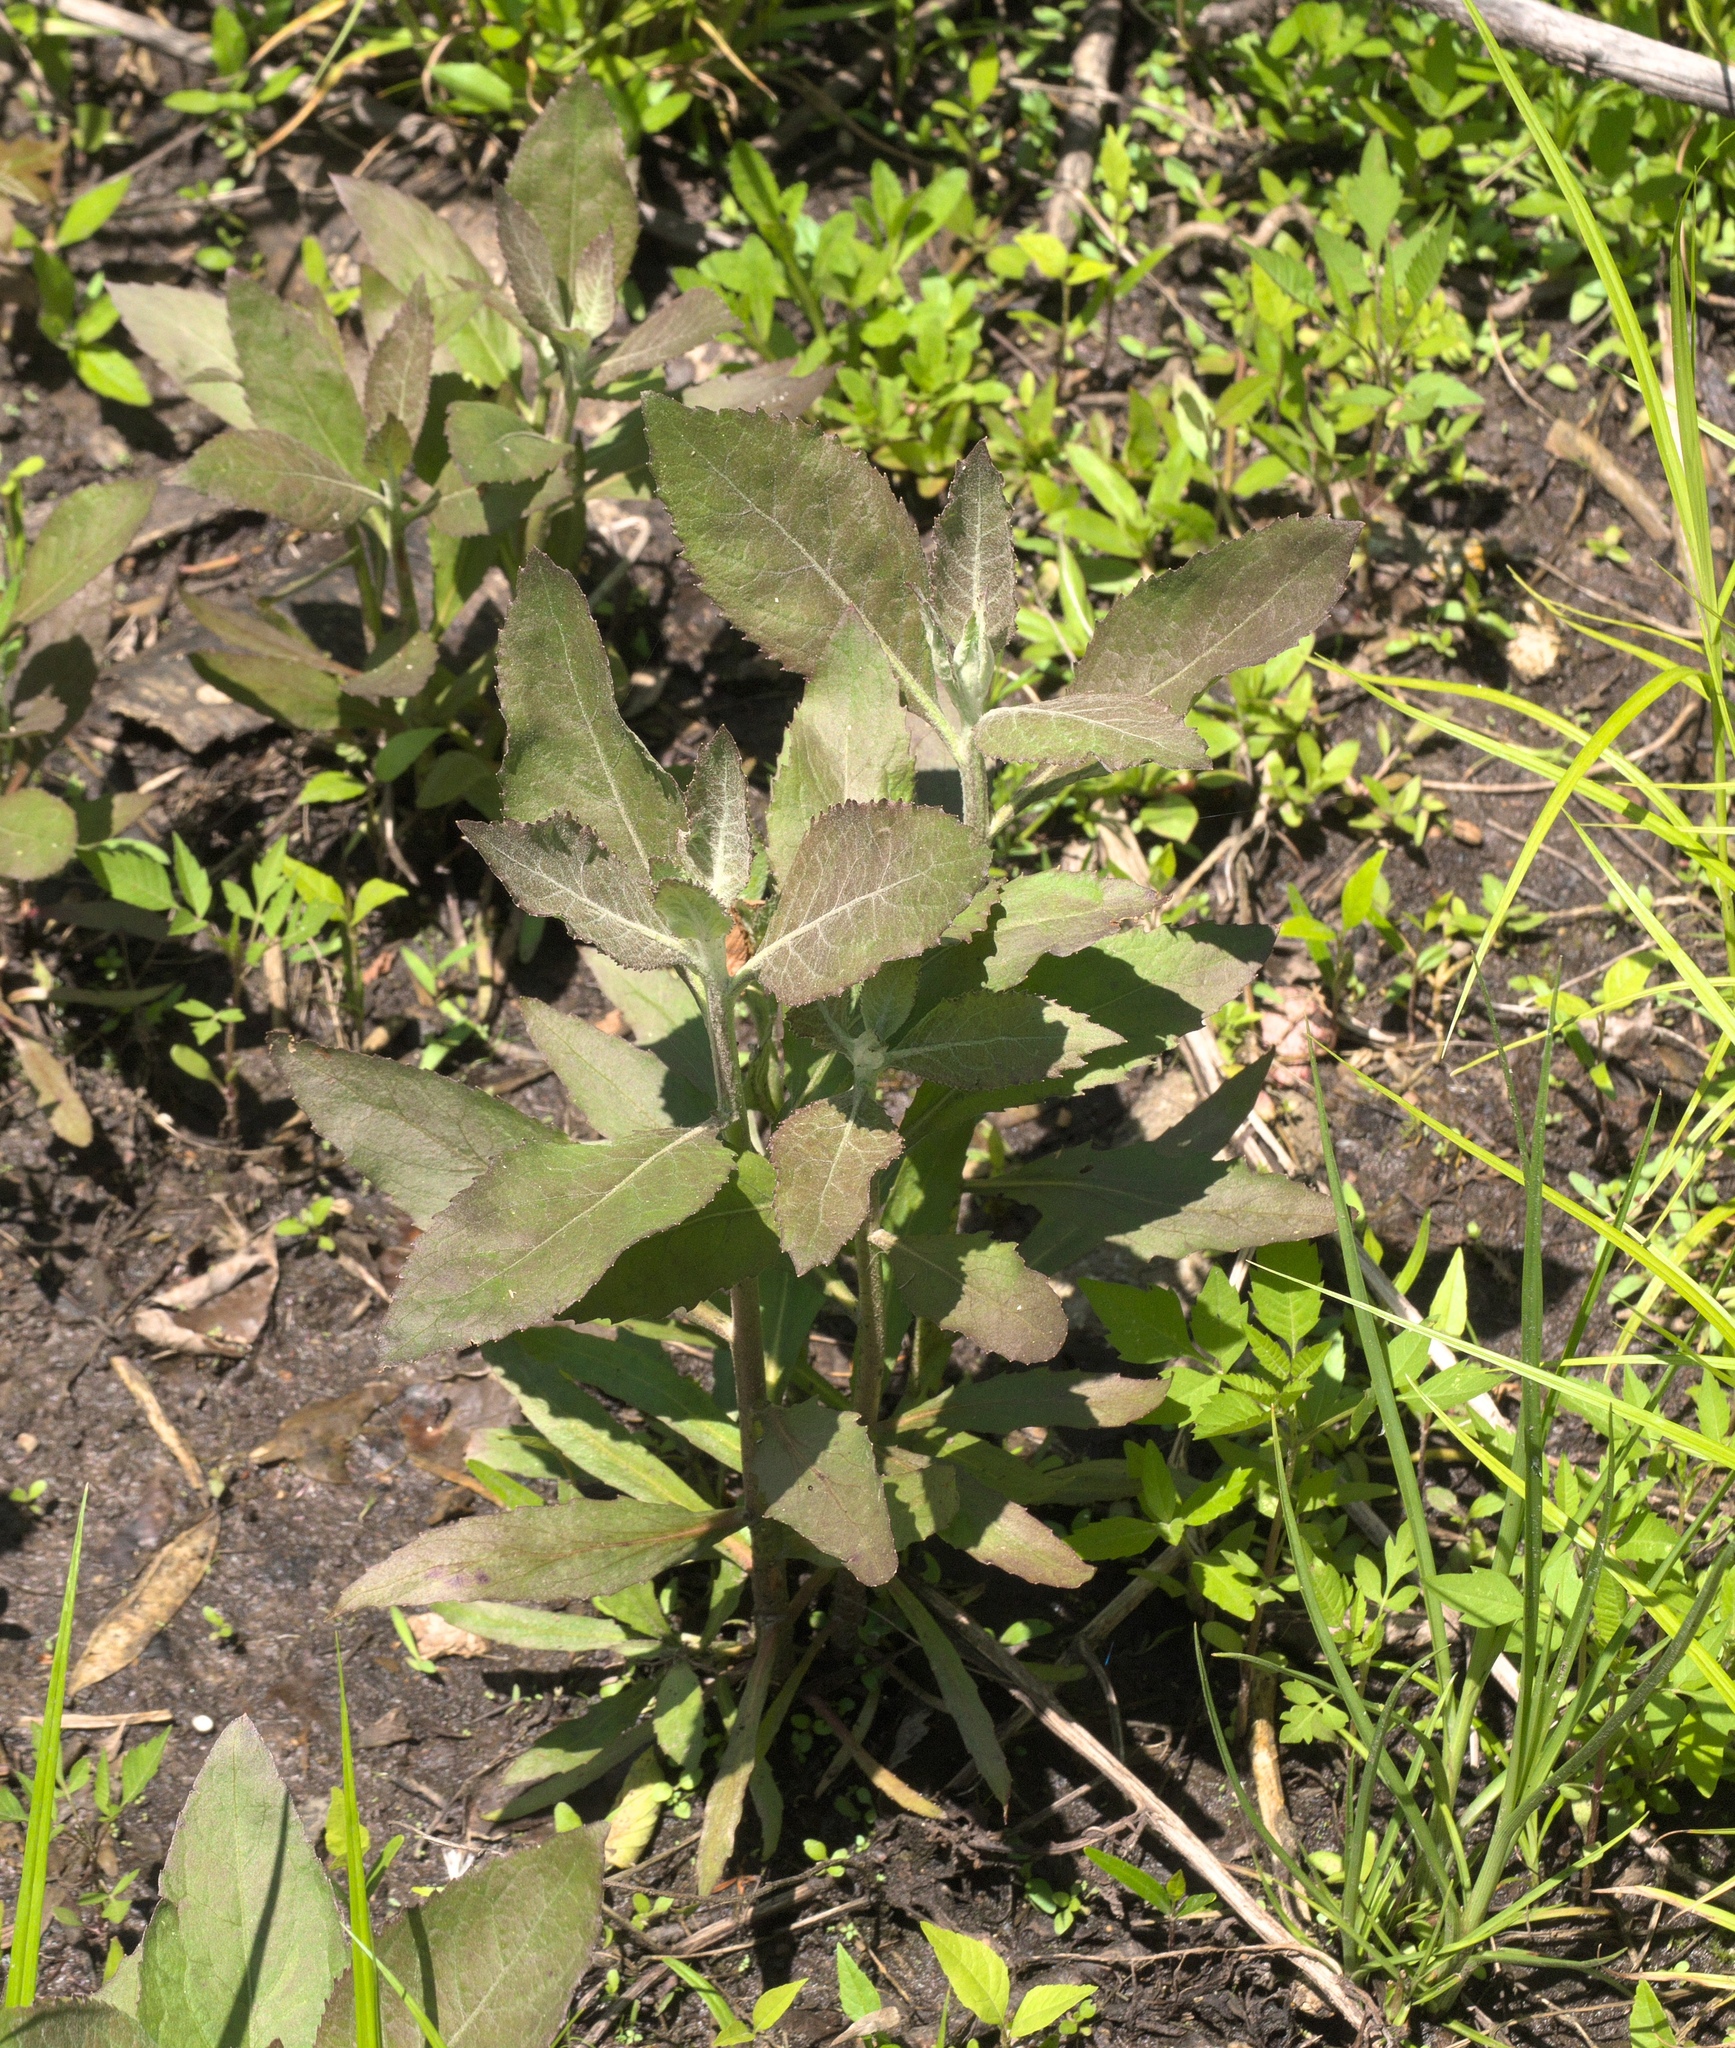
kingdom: Plantae
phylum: Tracheophyta
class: Magnoliopsida
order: Asterales
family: Asteraceae
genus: Pluchea
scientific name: Pluchea camphorata
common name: Camphor pluchea
